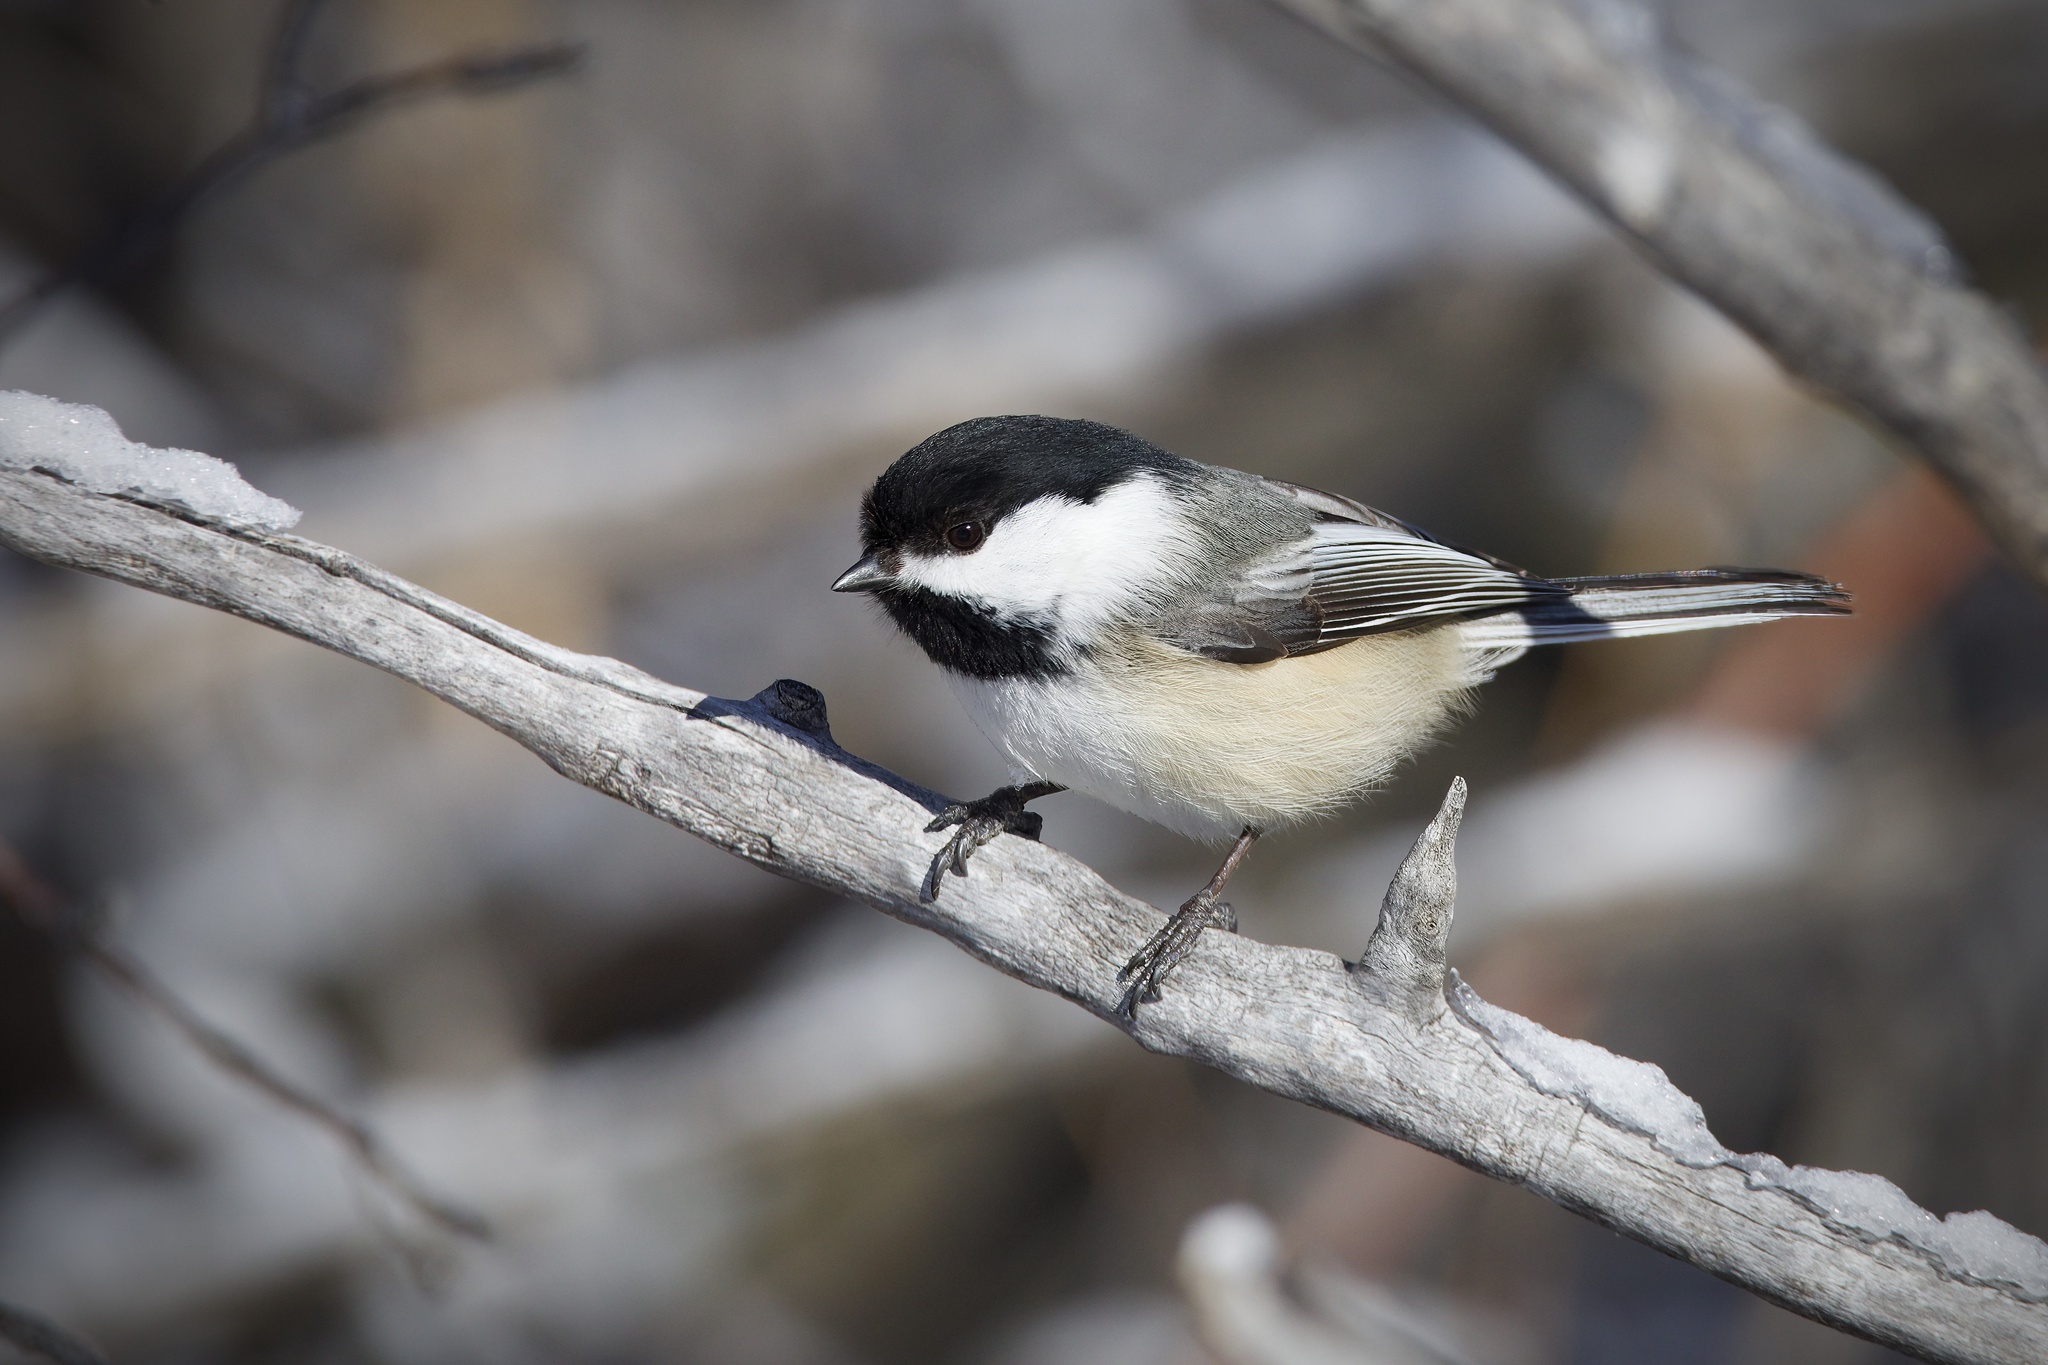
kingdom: Animalia
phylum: Chordata
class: Aves
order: Passeriformes
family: Paridae
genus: Poecile
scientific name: Poecile atricapillus
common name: Black-capped chickadee
